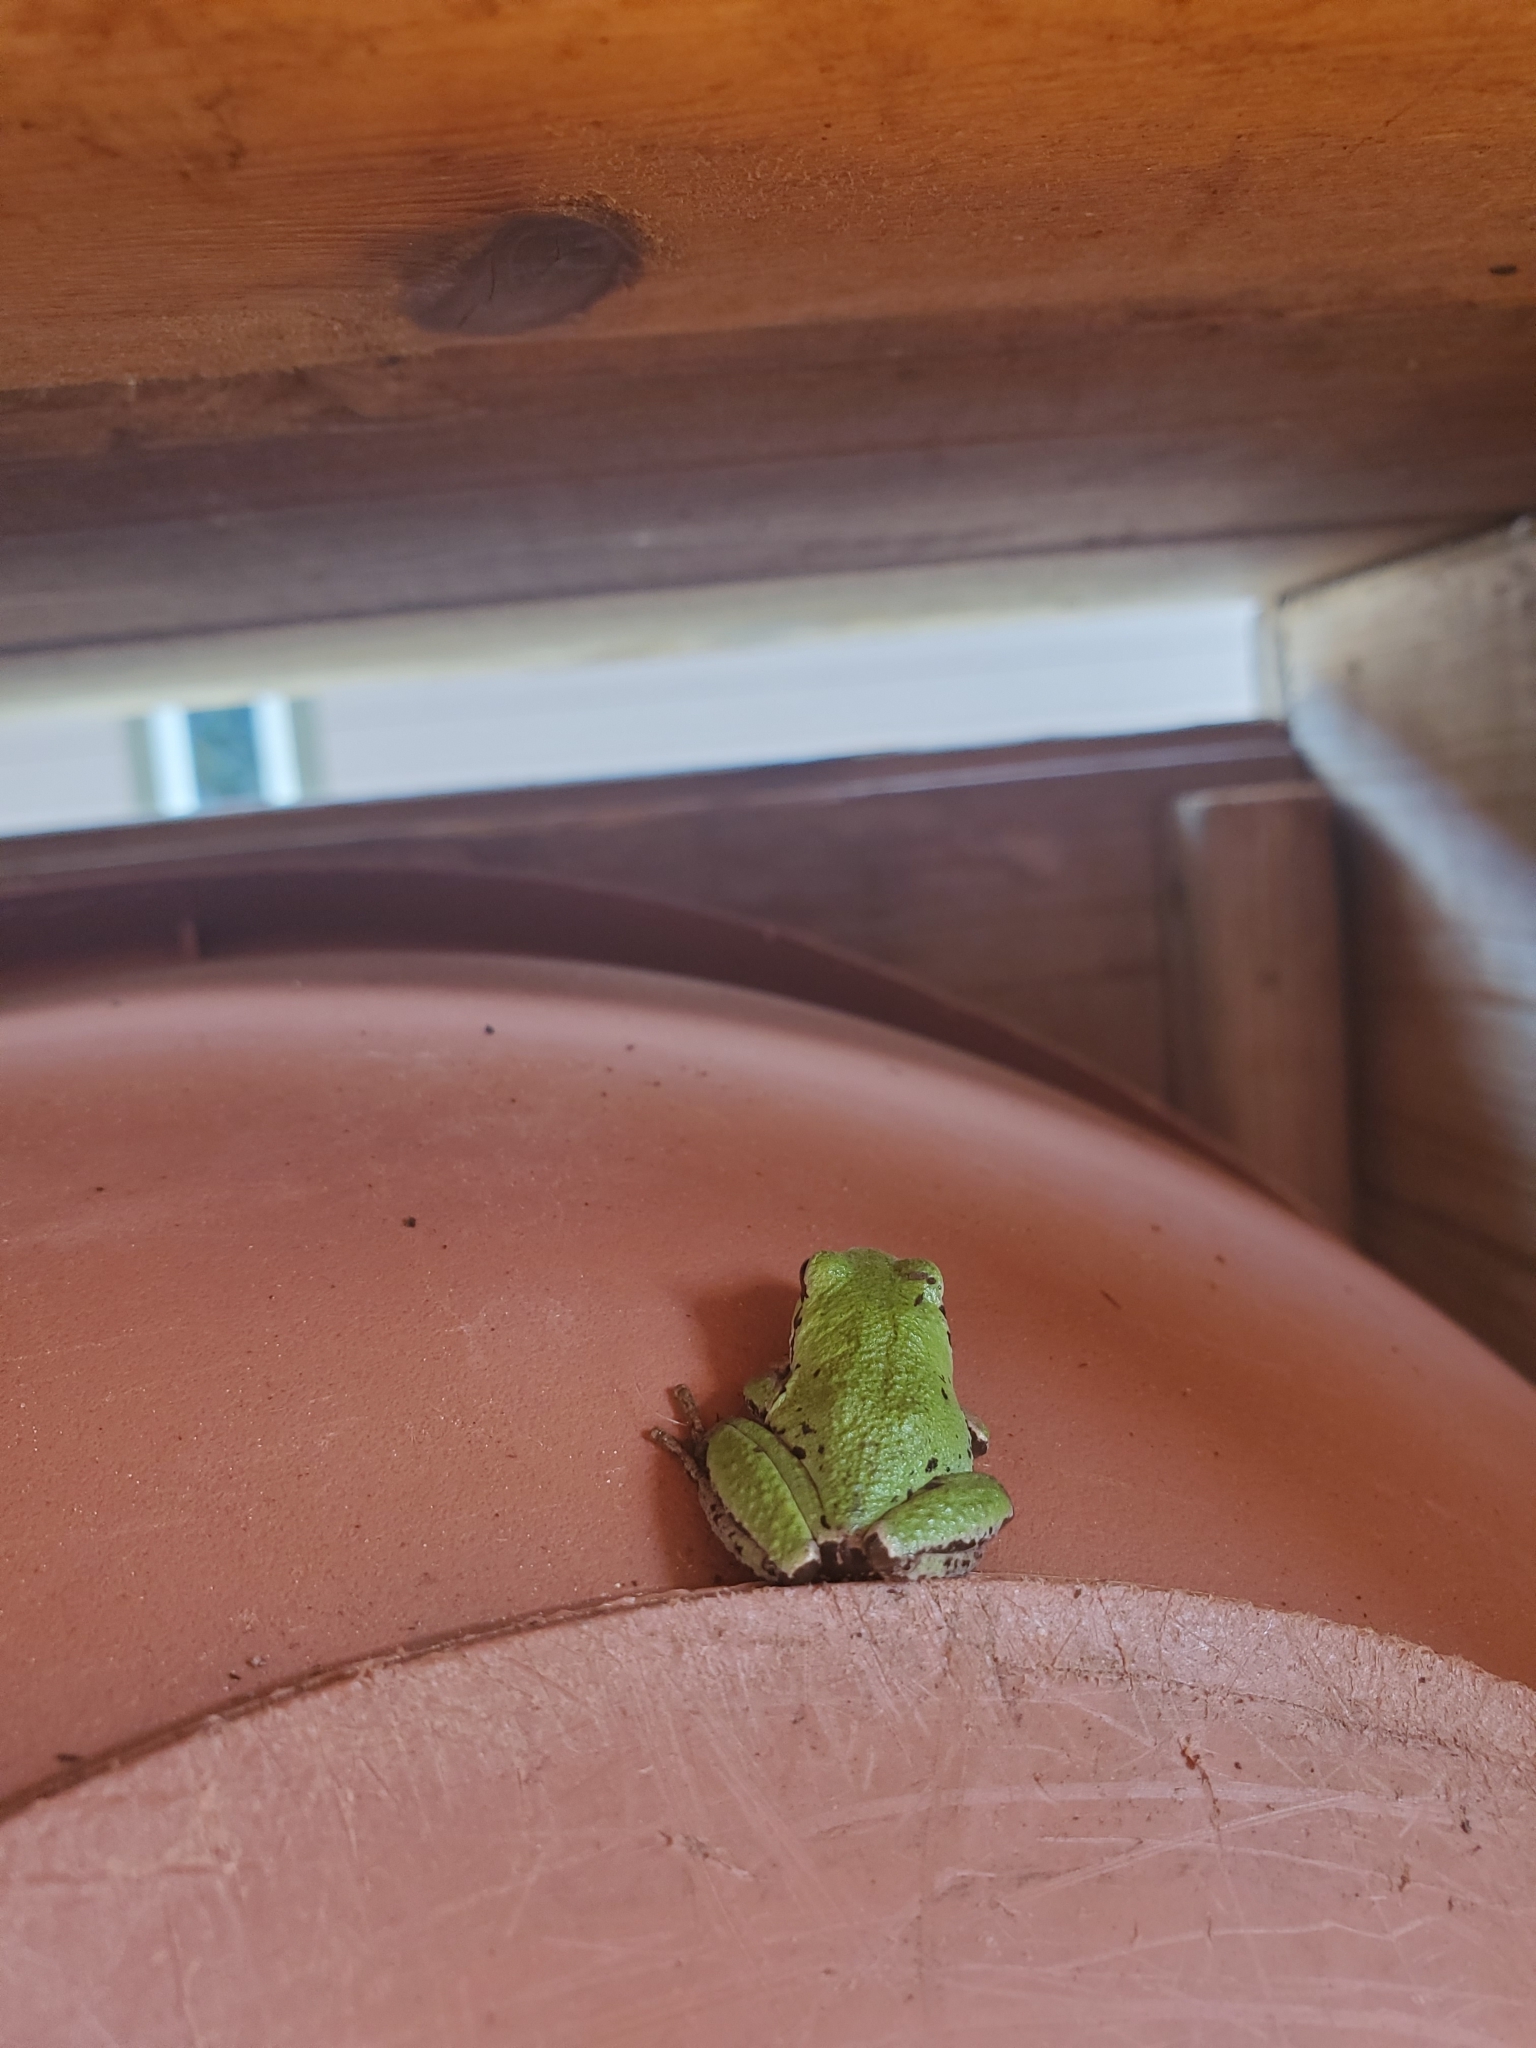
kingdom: Animalia
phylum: Chordata
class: Amphibia
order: Anura
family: Hylidae
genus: Pseudacris
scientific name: Pseudacris regilla
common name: Pacific chorus frog
